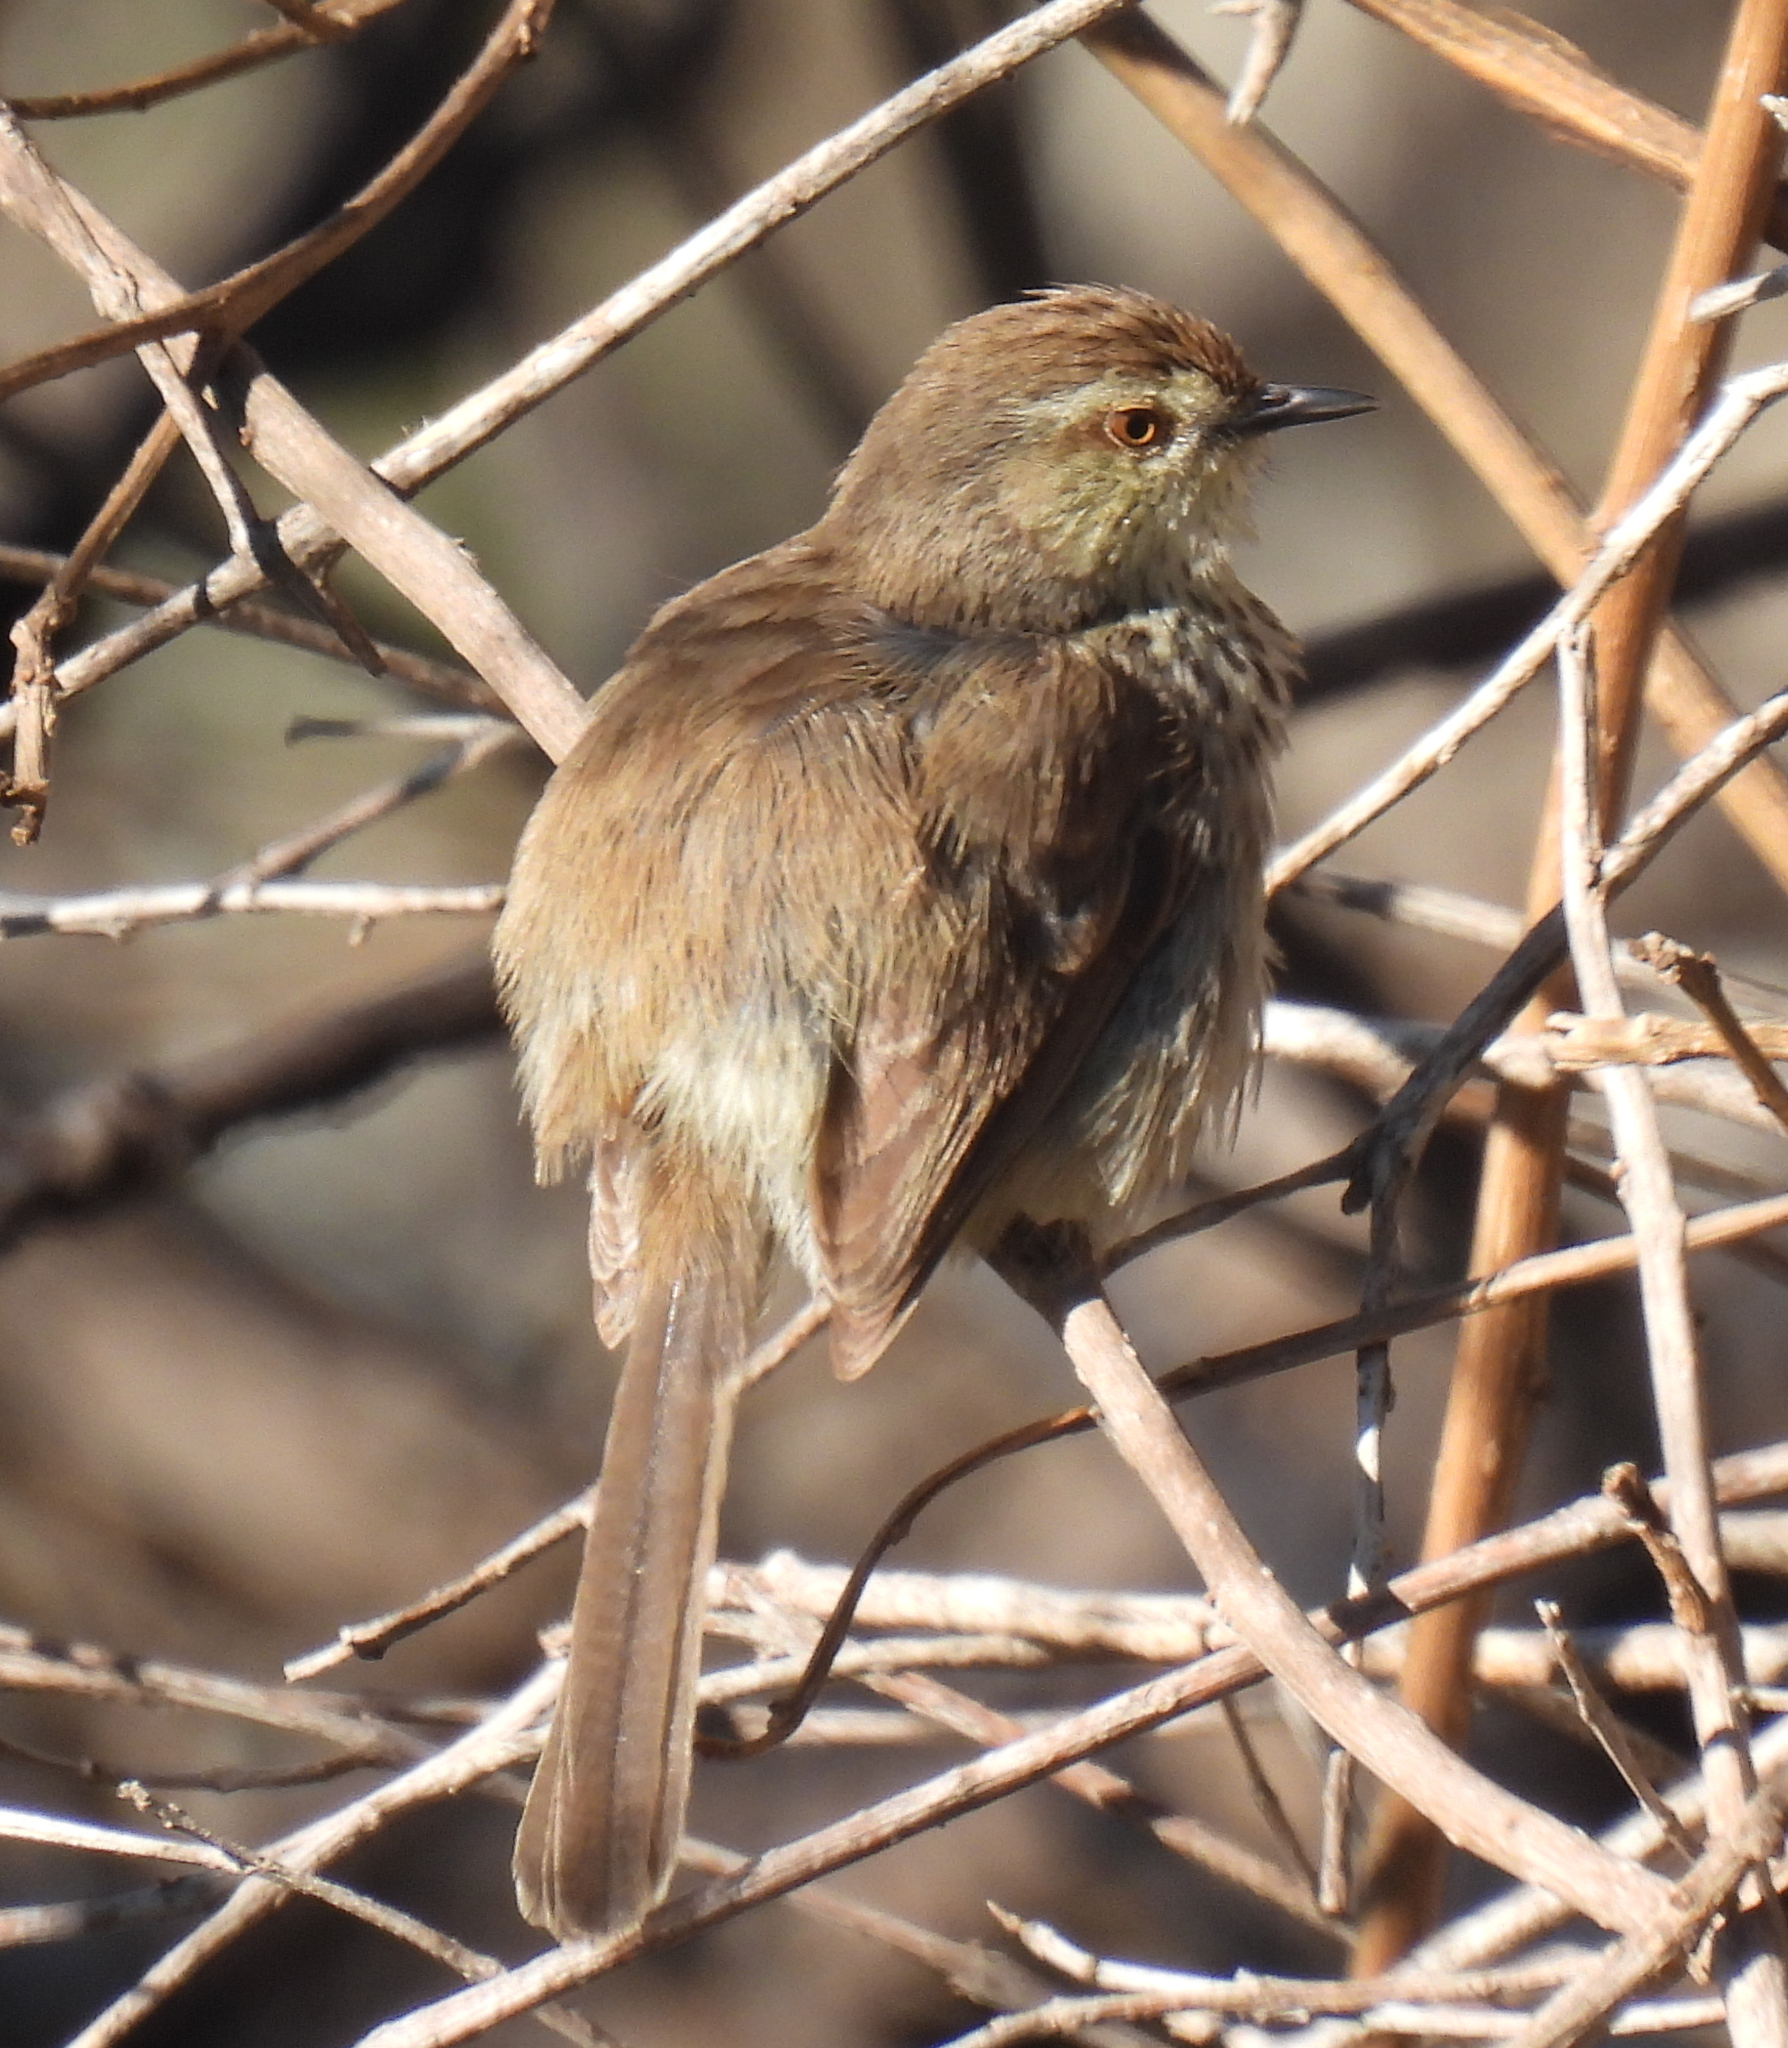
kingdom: Animalia
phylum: Chordata
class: Aves
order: Passeriformes
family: Cisticolidae
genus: Prinia
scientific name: Prinia maculosa
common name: Karoo prinia
